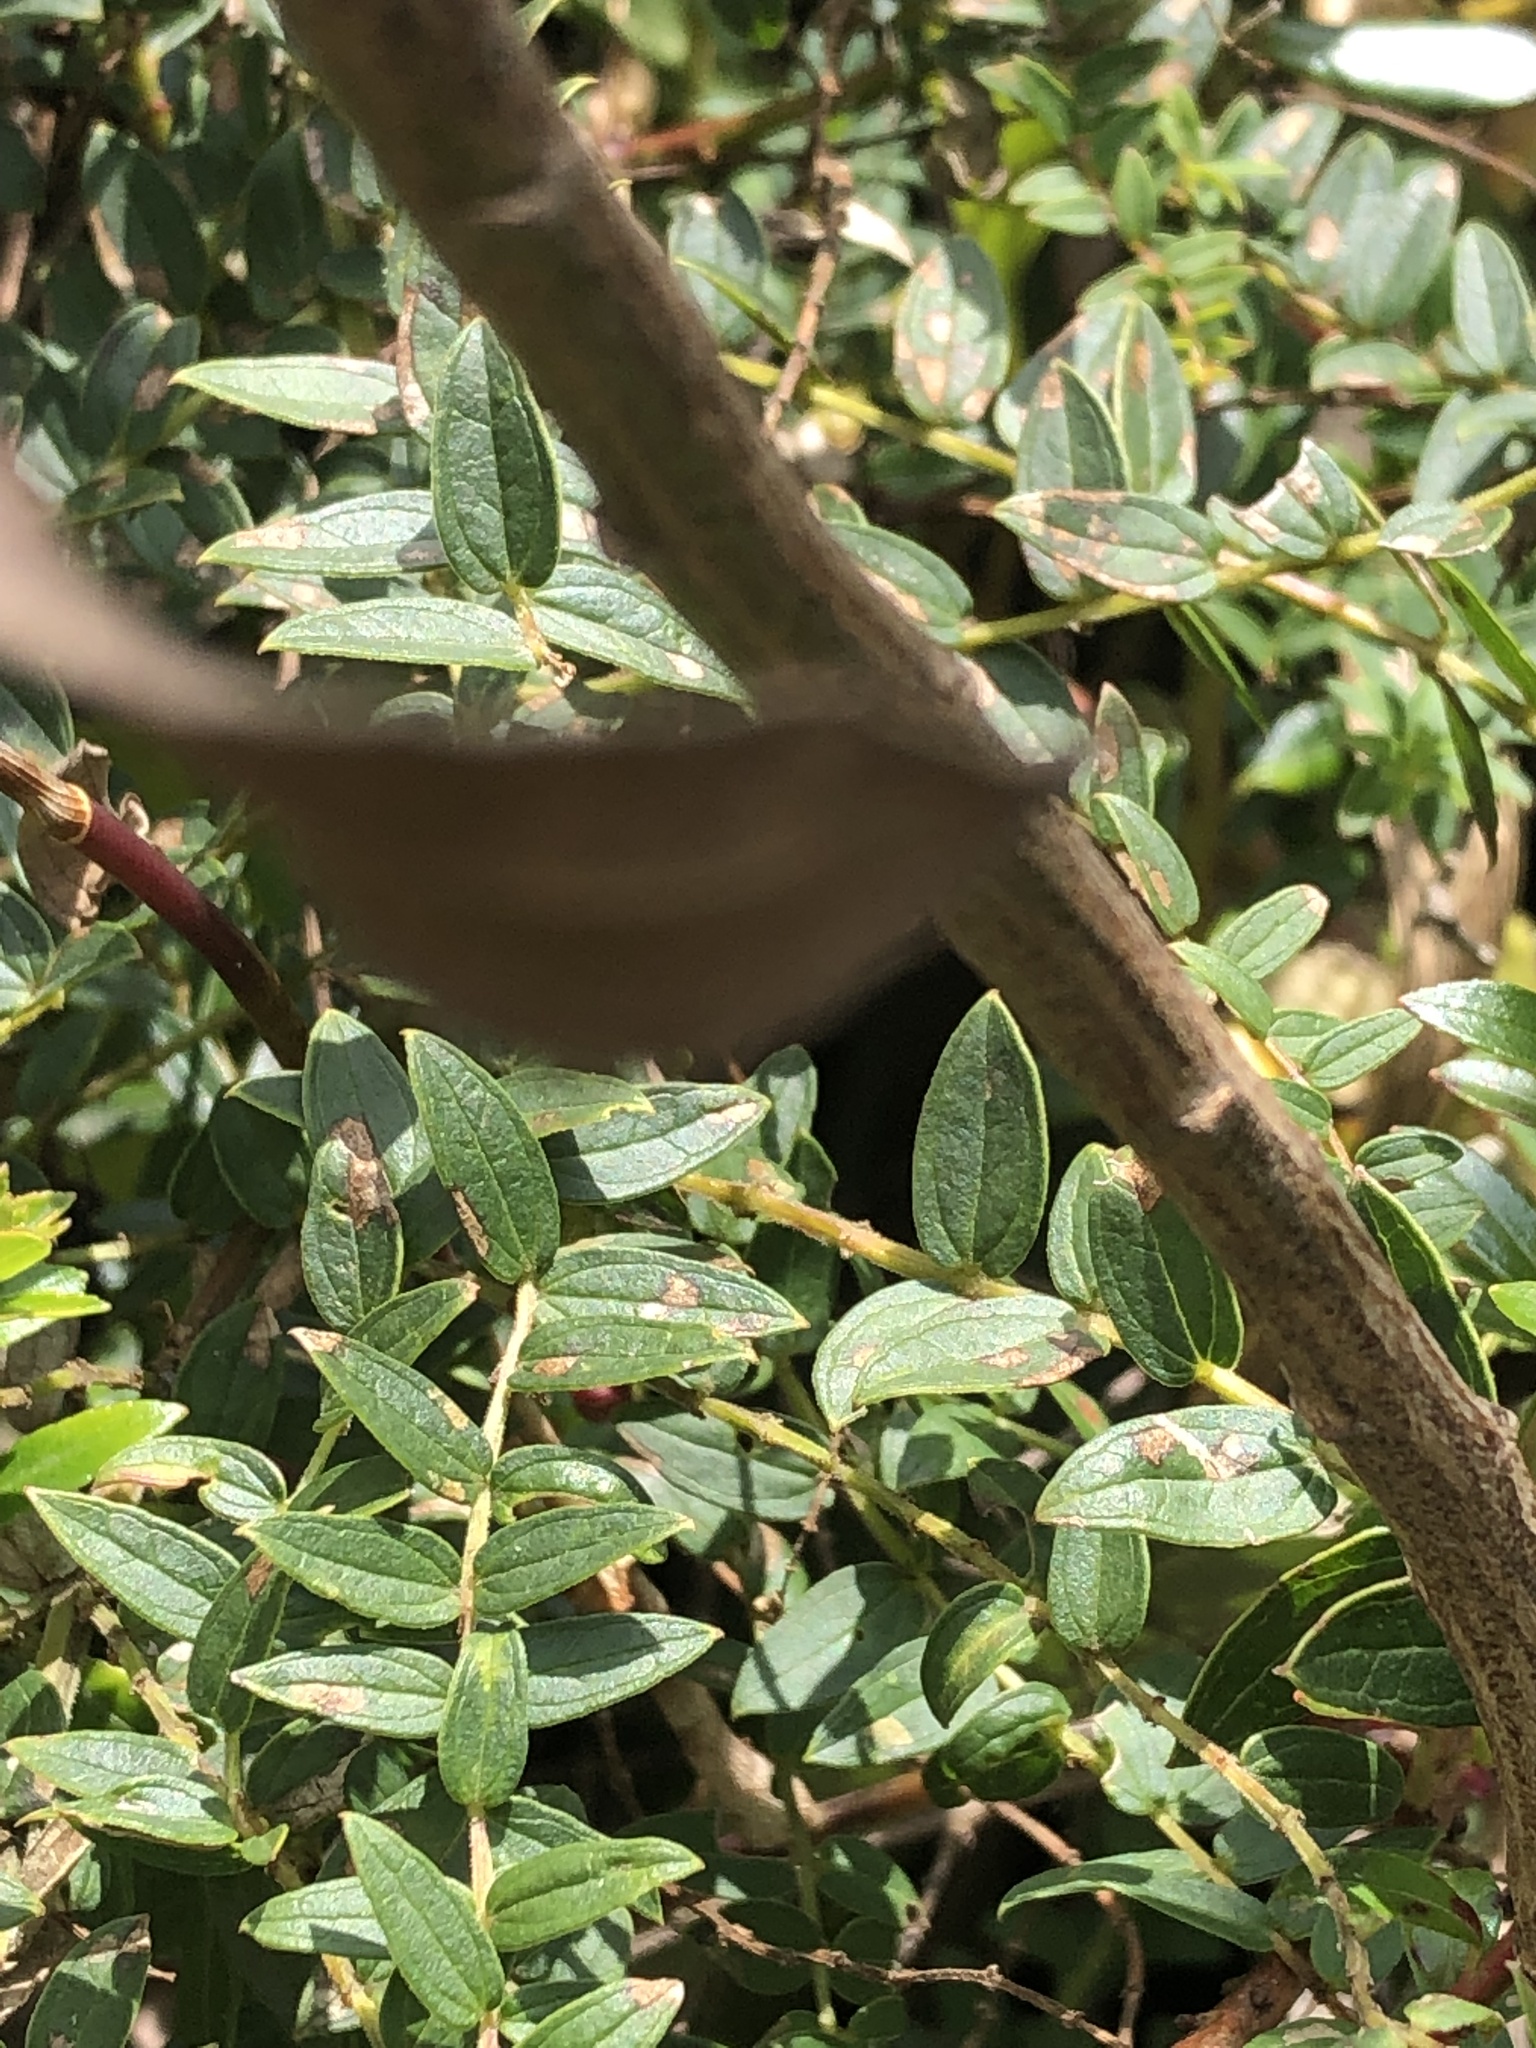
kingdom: Plantae
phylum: Tracheophyta
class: Liliopsida
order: Asparagales
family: Orchidaceae
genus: Epidendrum
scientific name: Epidendrum jamiesonis
